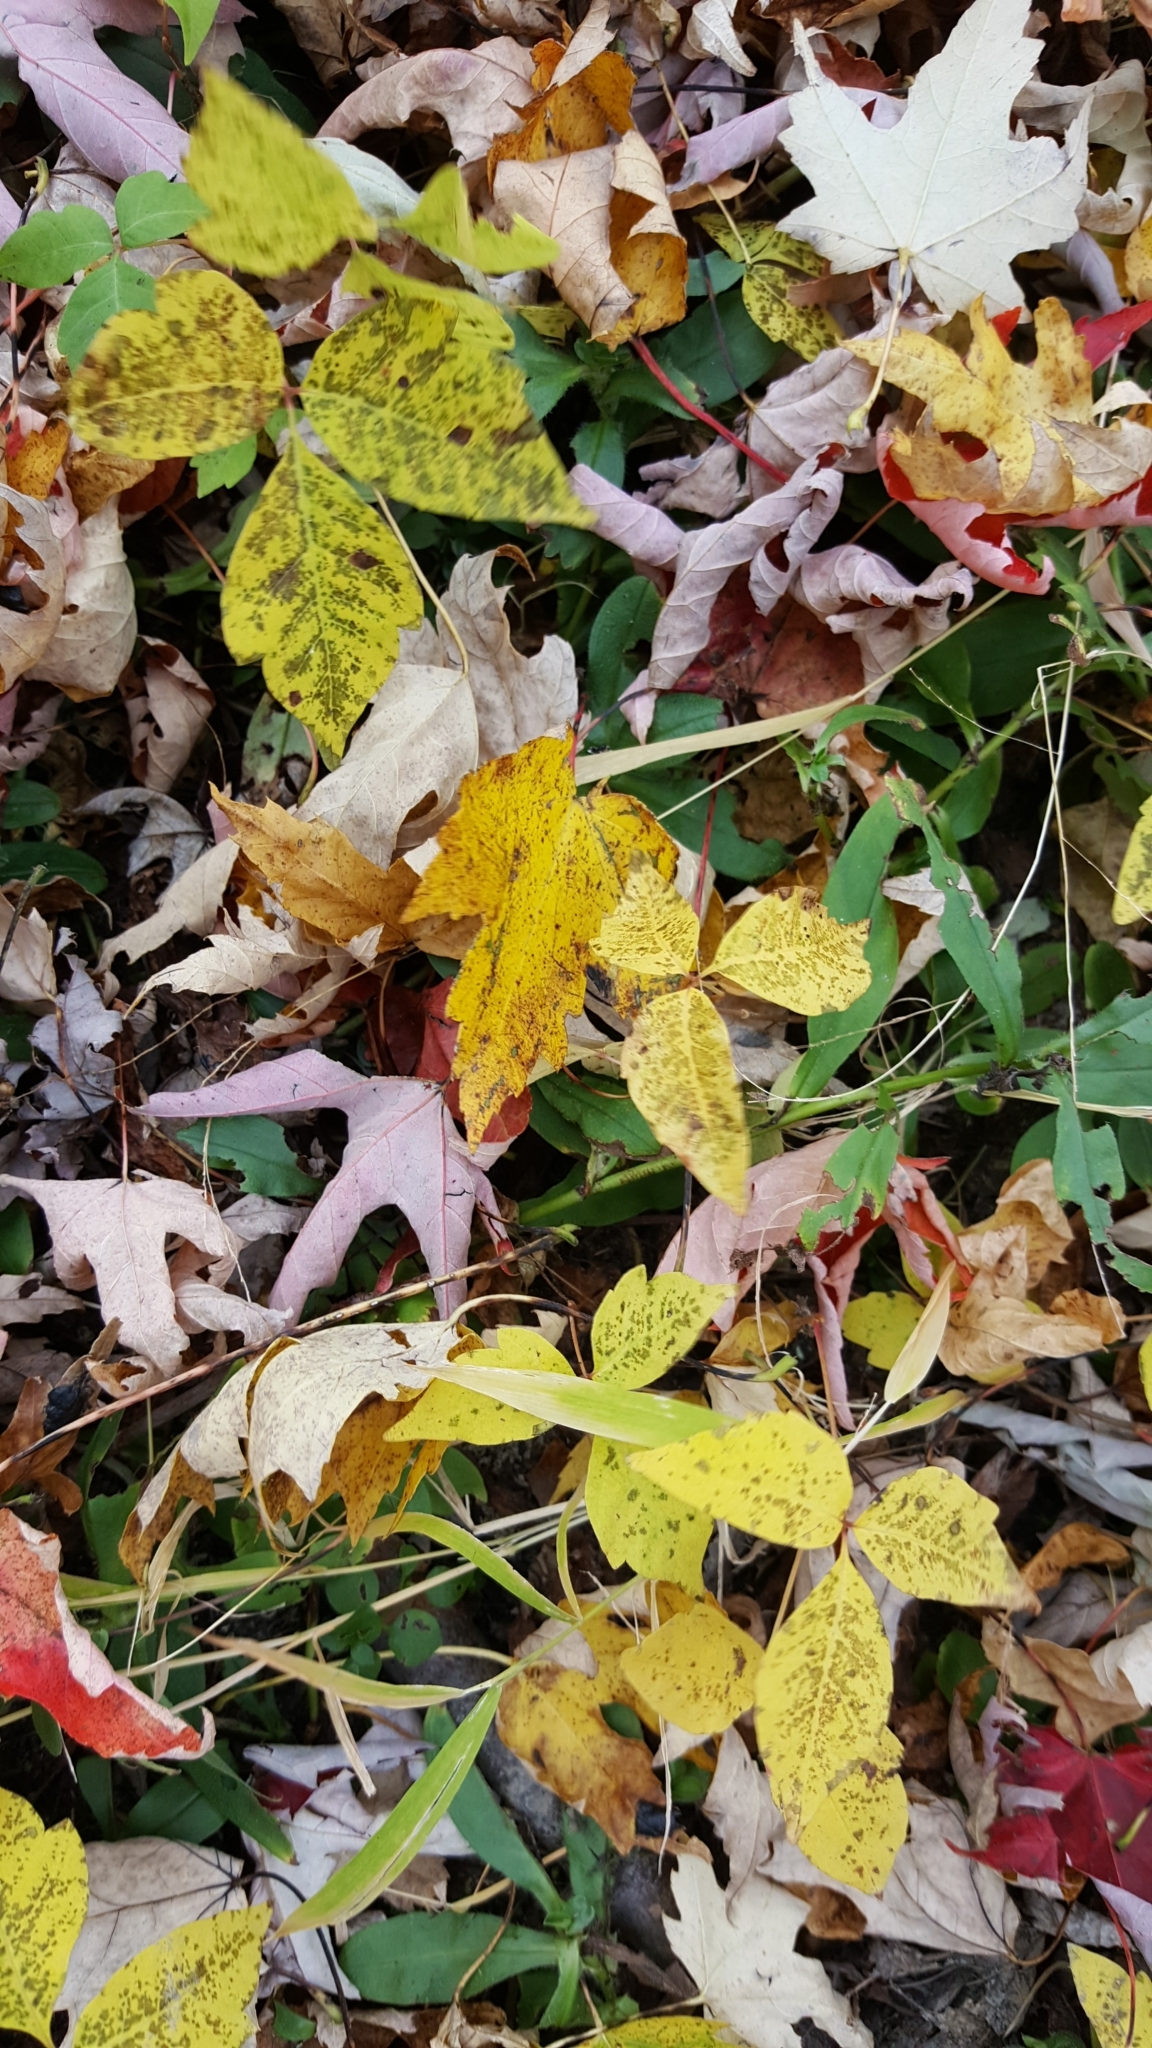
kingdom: Plantae
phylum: Tracheophyta
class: Magnoliopsida
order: Sapindales
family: Anacardiaceae
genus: Toxicodendron
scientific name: Toxicodendron radicans
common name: Poison ivy
